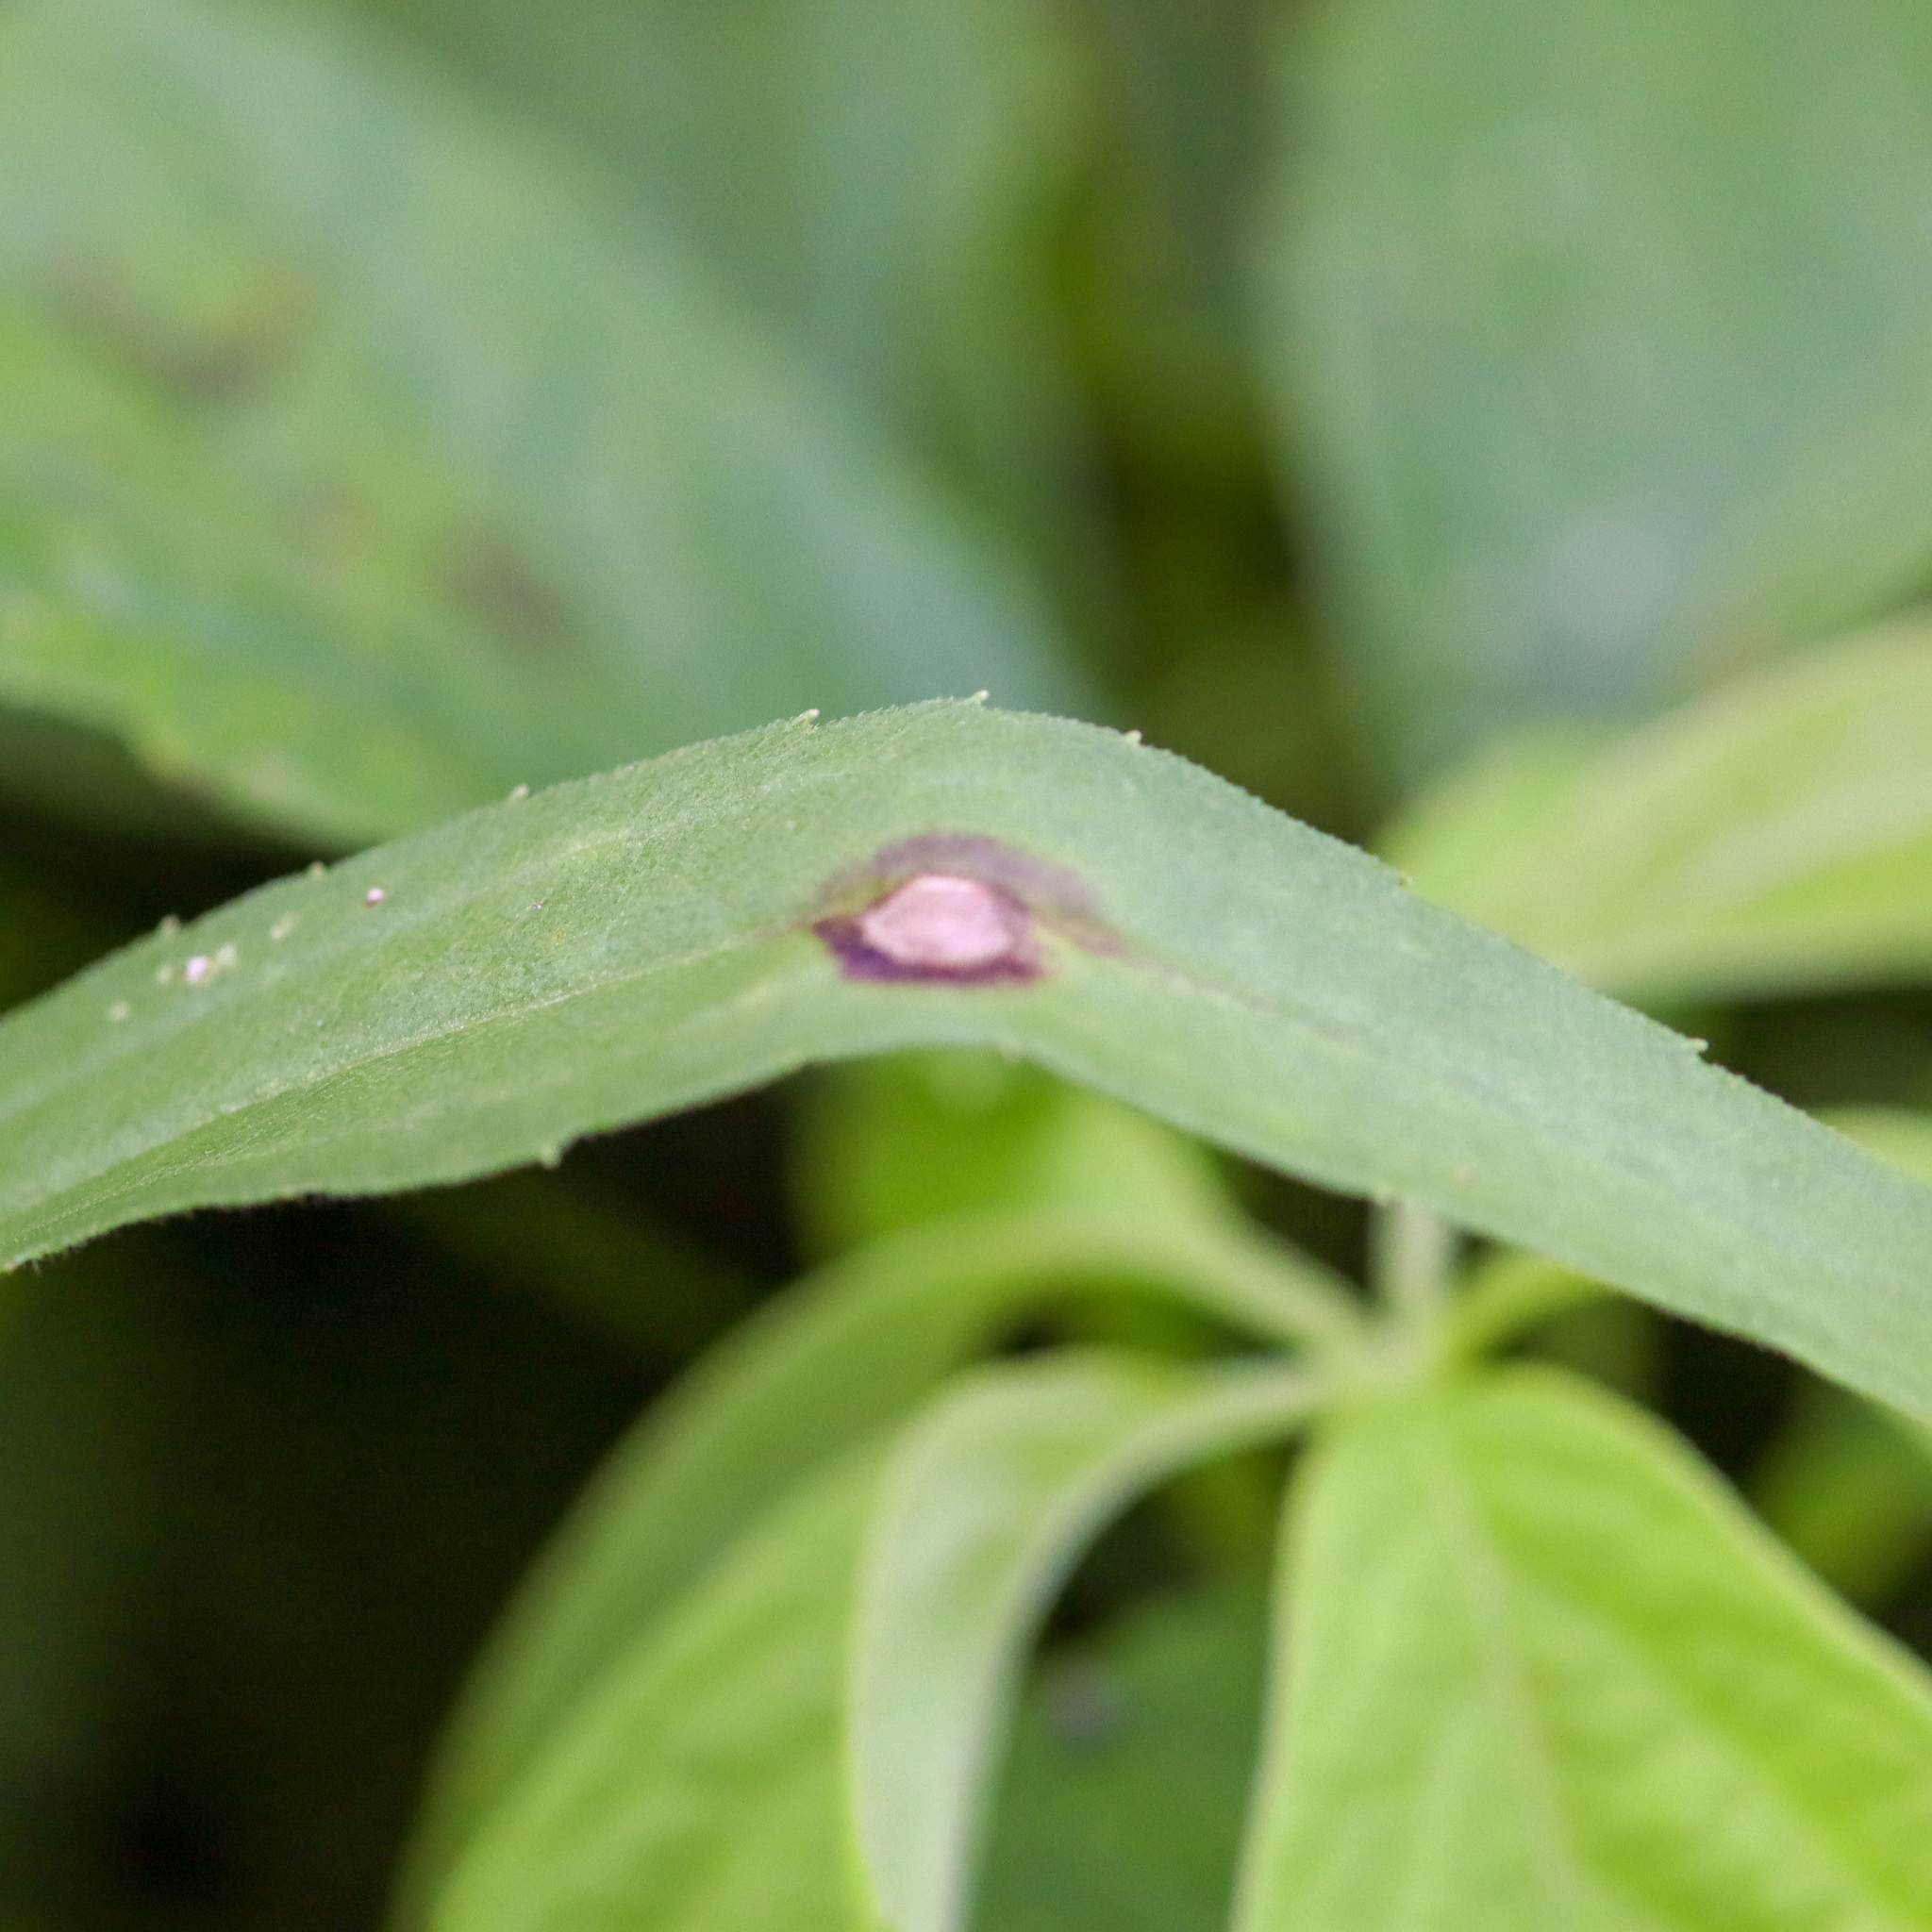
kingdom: Animalia
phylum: Arthropoda
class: Insecta
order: Diptera
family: Cecidomyiidae
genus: Asteromyia
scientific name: Asteromyia carbonifera
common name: Carbonifera goldenrod gall midge
